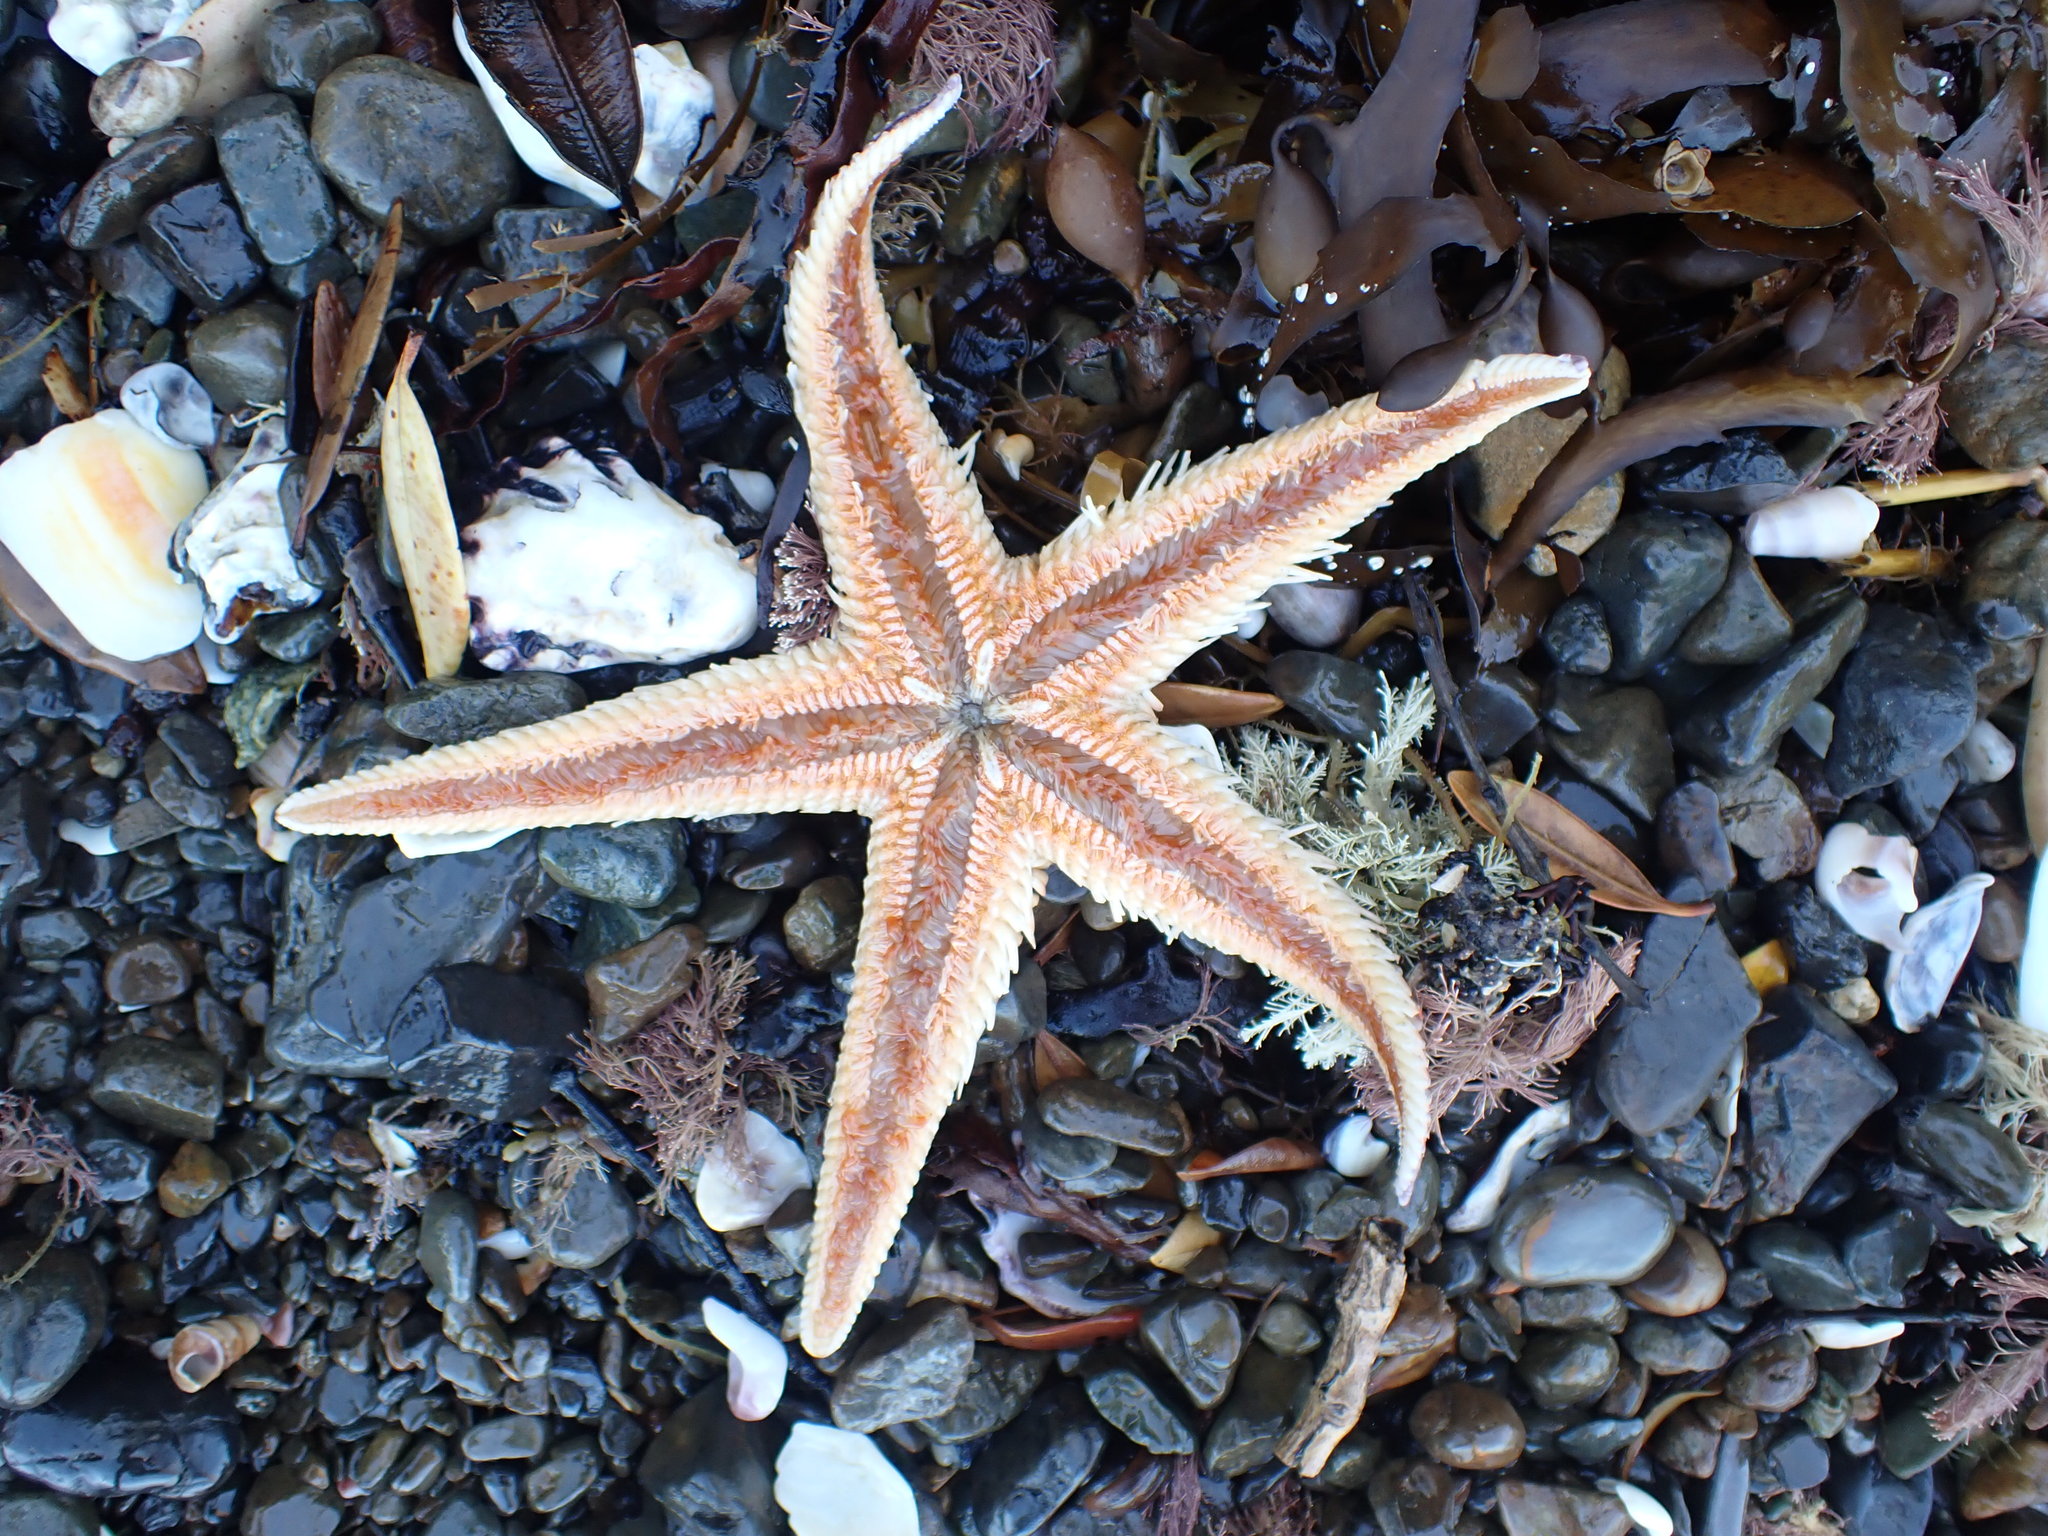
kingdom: Animalia
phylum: Echinodermata
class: Asteroidea
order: Paxillosida
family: Astropectinidae
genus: Astropecten
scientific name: Astropecten polyacanthus
